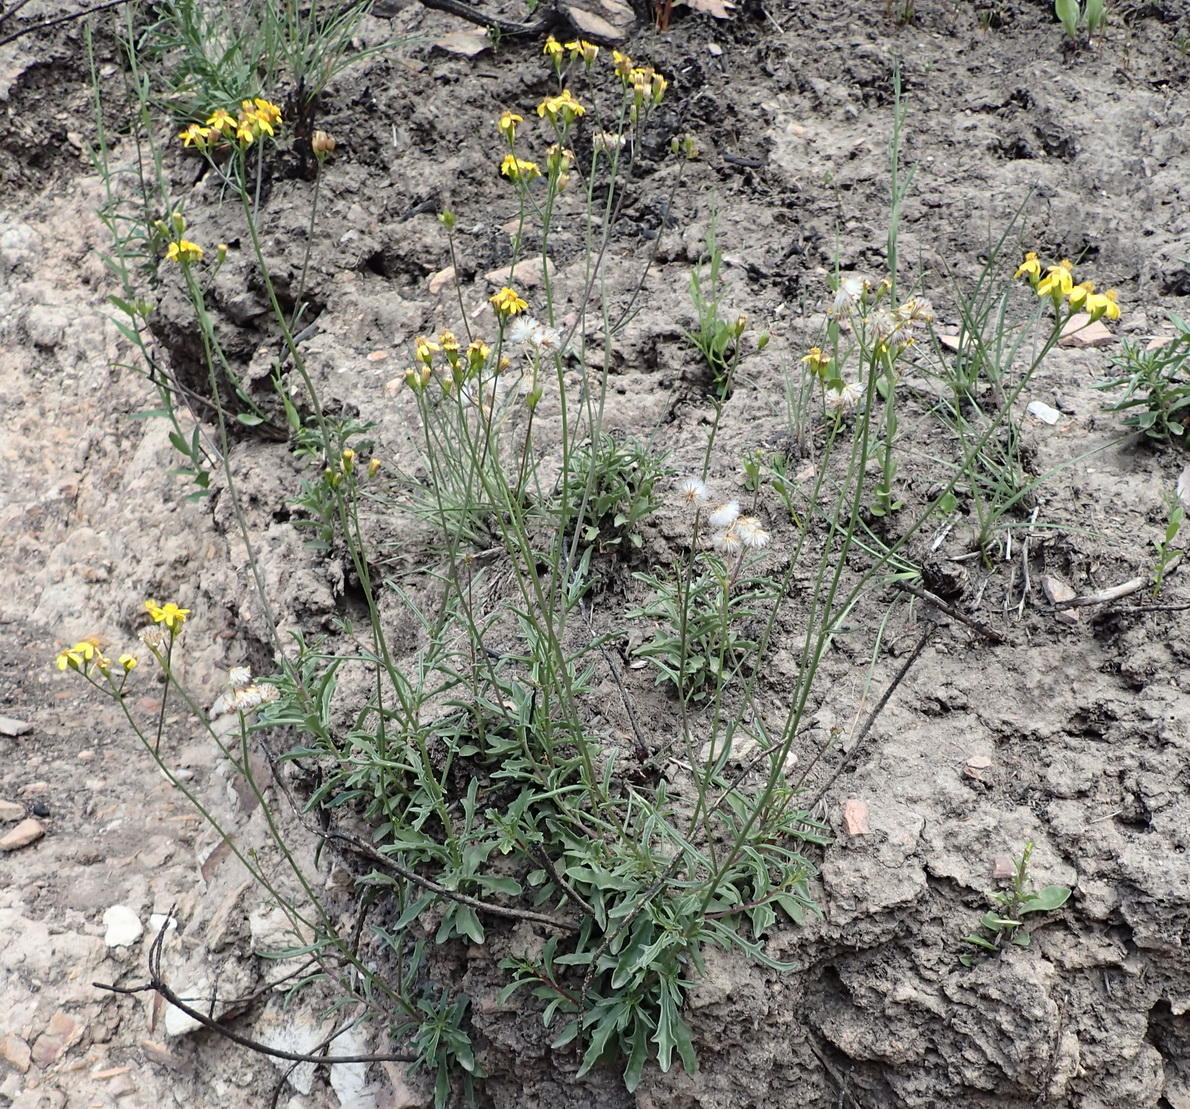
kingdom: Plantae
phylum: Tracheophyta
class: Magnoliopsida
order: Asterales
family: Asteraceae
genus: Senecio
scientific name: Senecio crassiusculus
